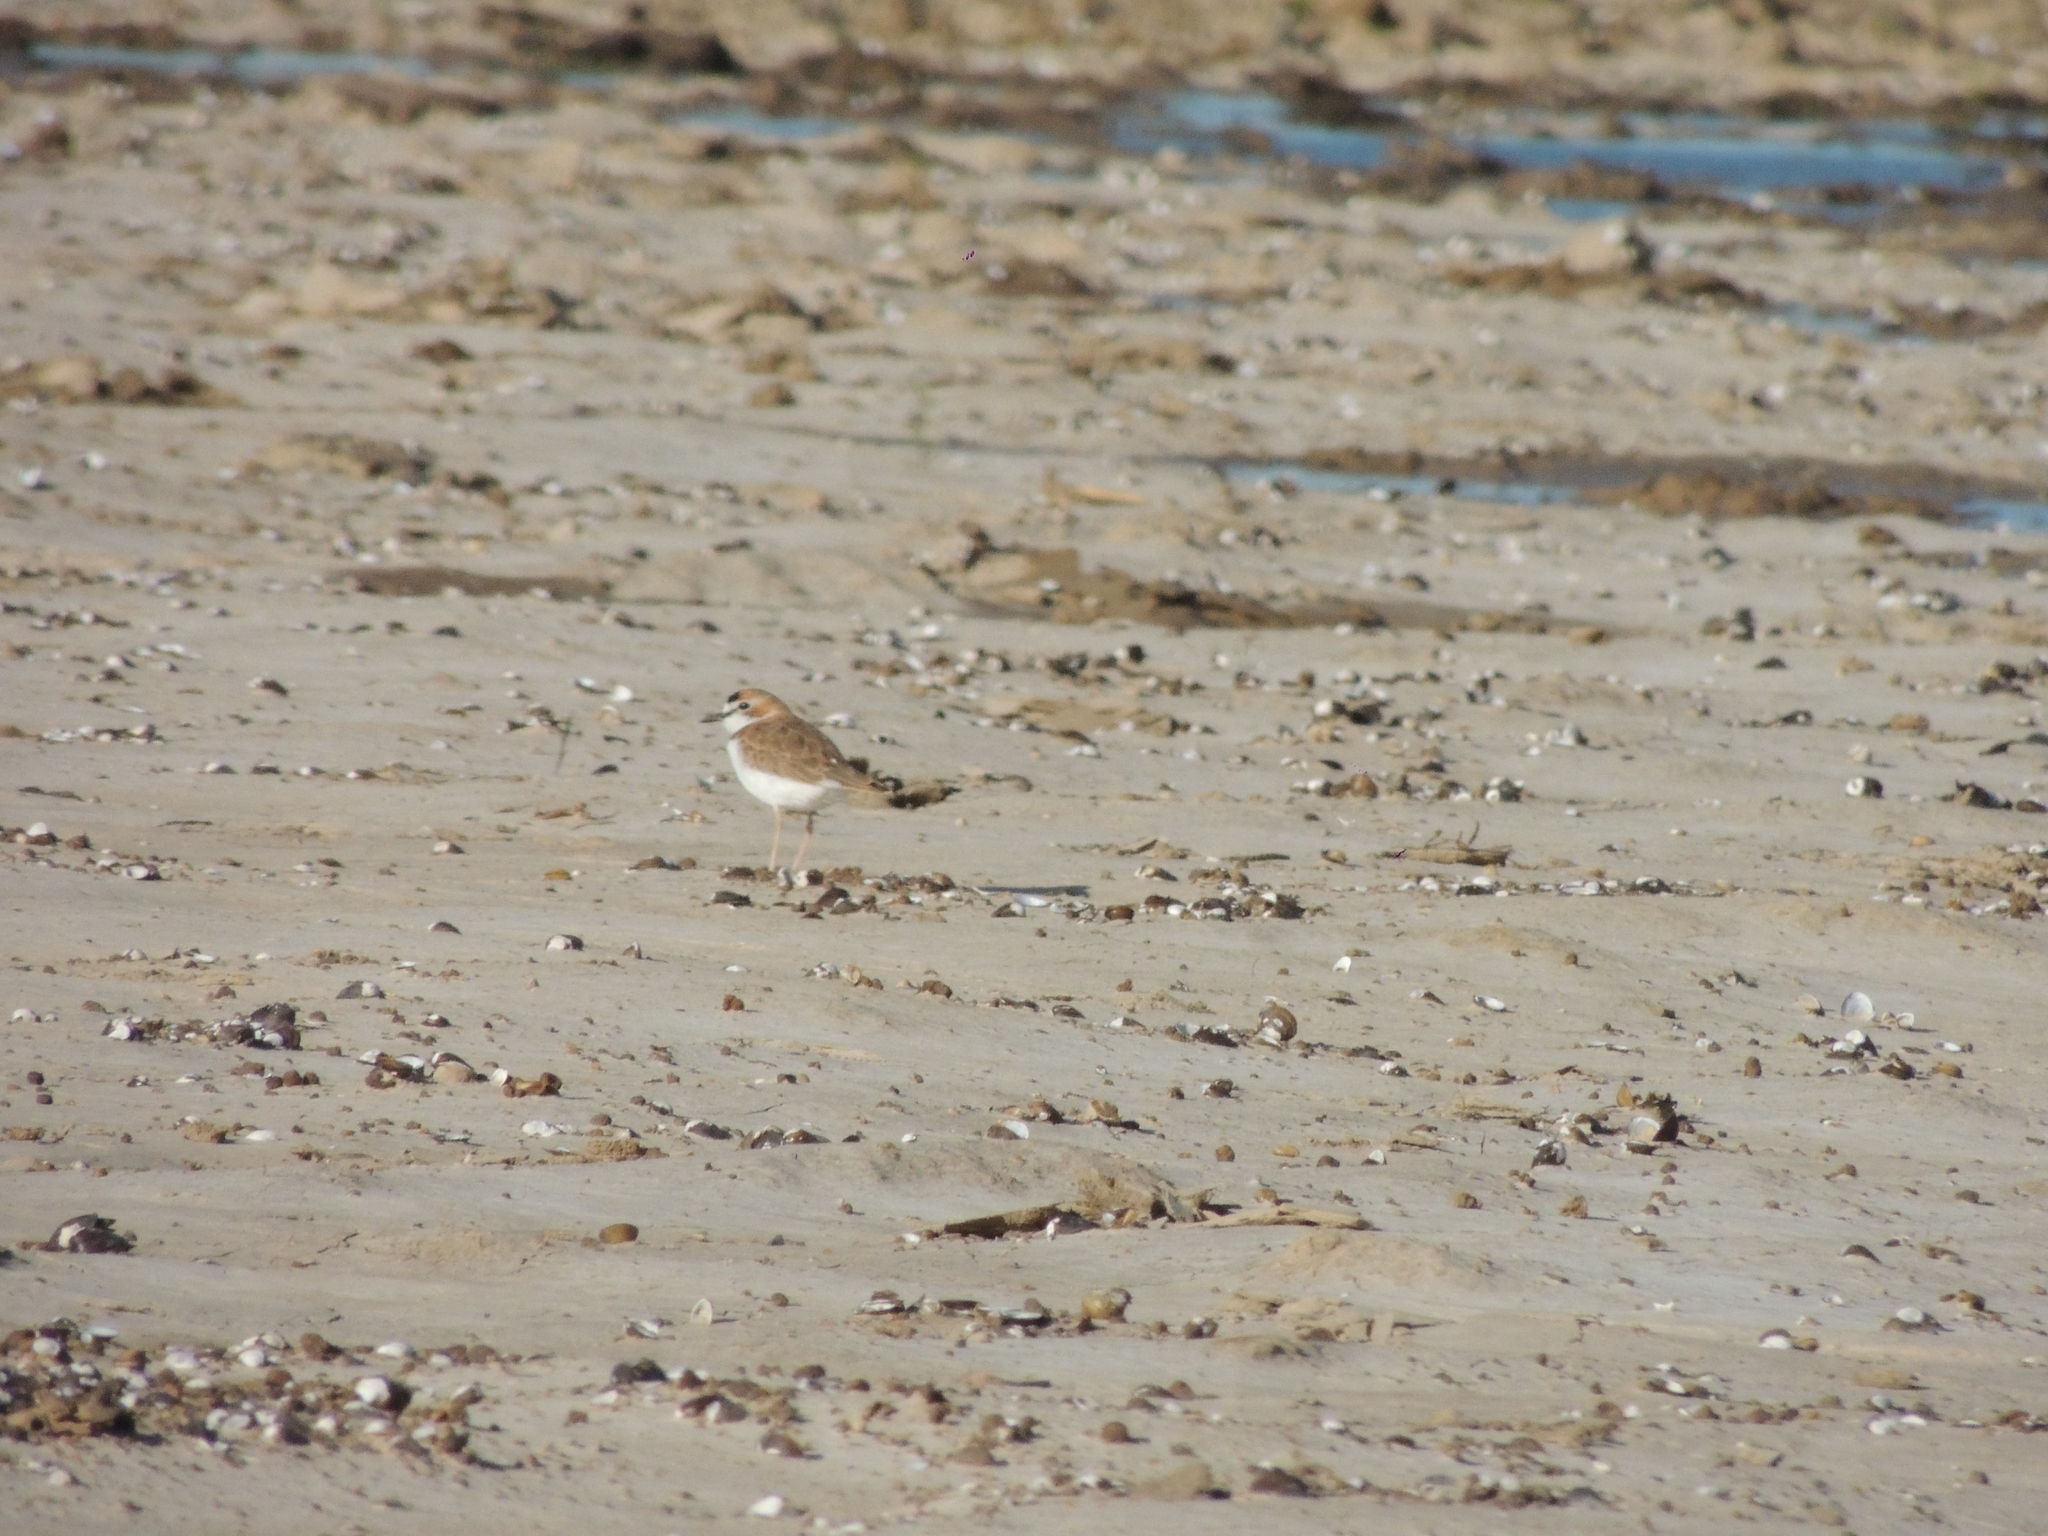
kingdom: Animalia
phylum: Chordata
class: Aves
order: Charadriiformes
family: Charadriidae
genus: Anarhynchus
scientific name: Anarhynchus
